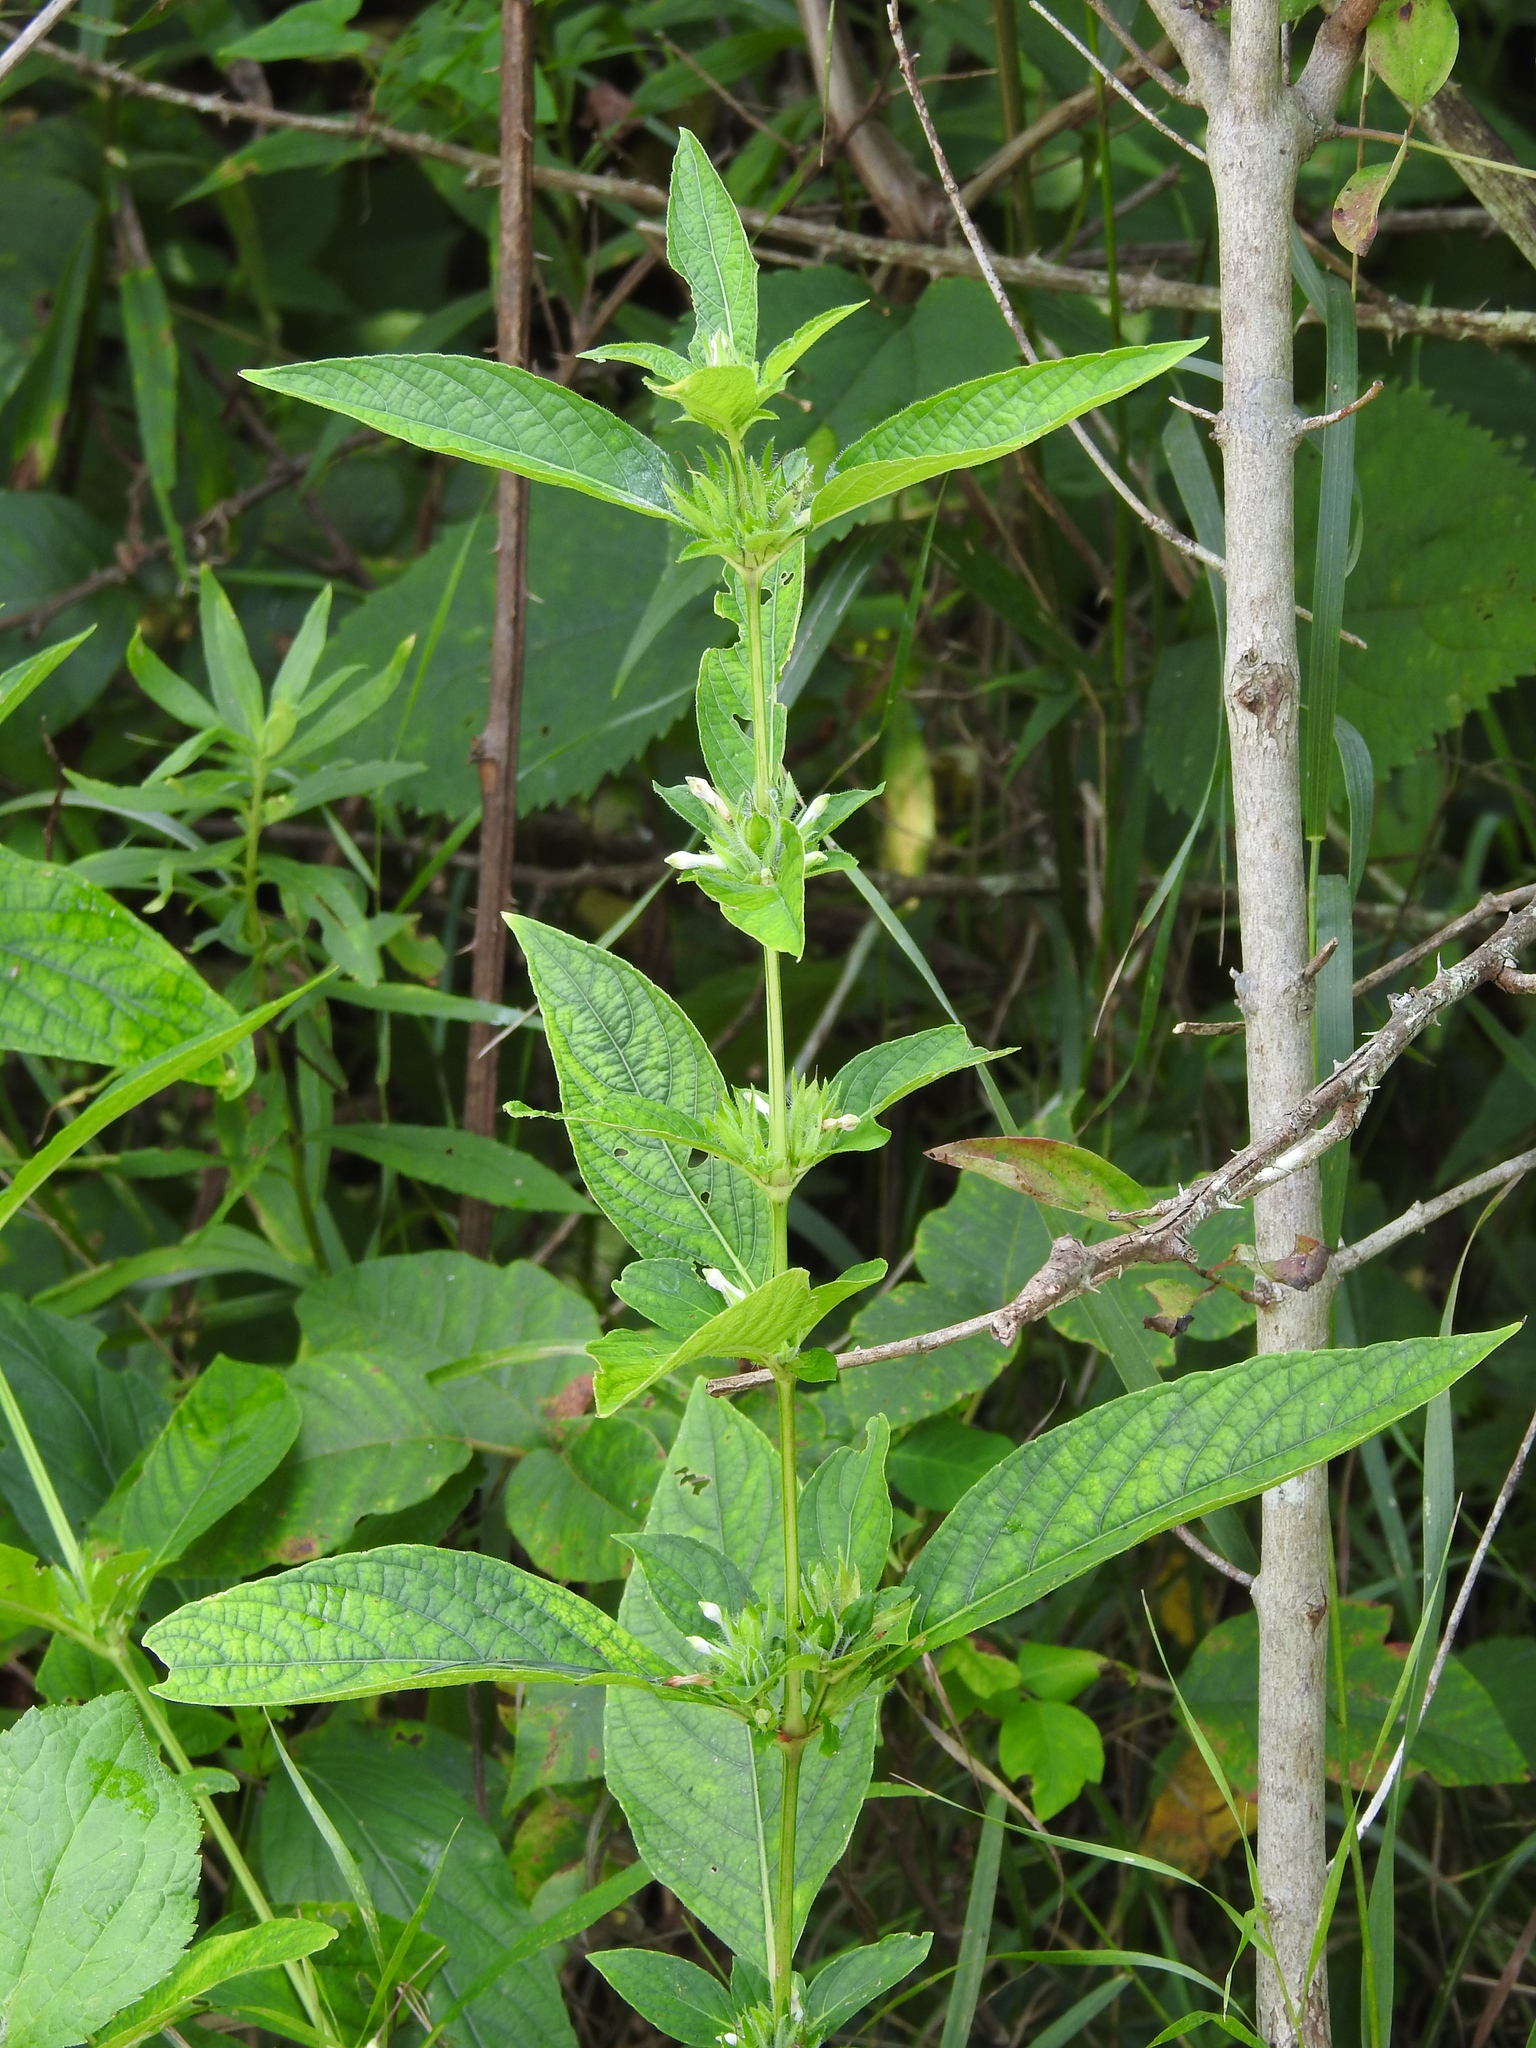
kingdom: Plantae
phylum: Tracheophyta
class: Magnoliopsida
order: Lamiales
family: Acanthaceae
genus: Ruellia
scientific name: Ruellia strepens
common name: Limestone wild petunia
